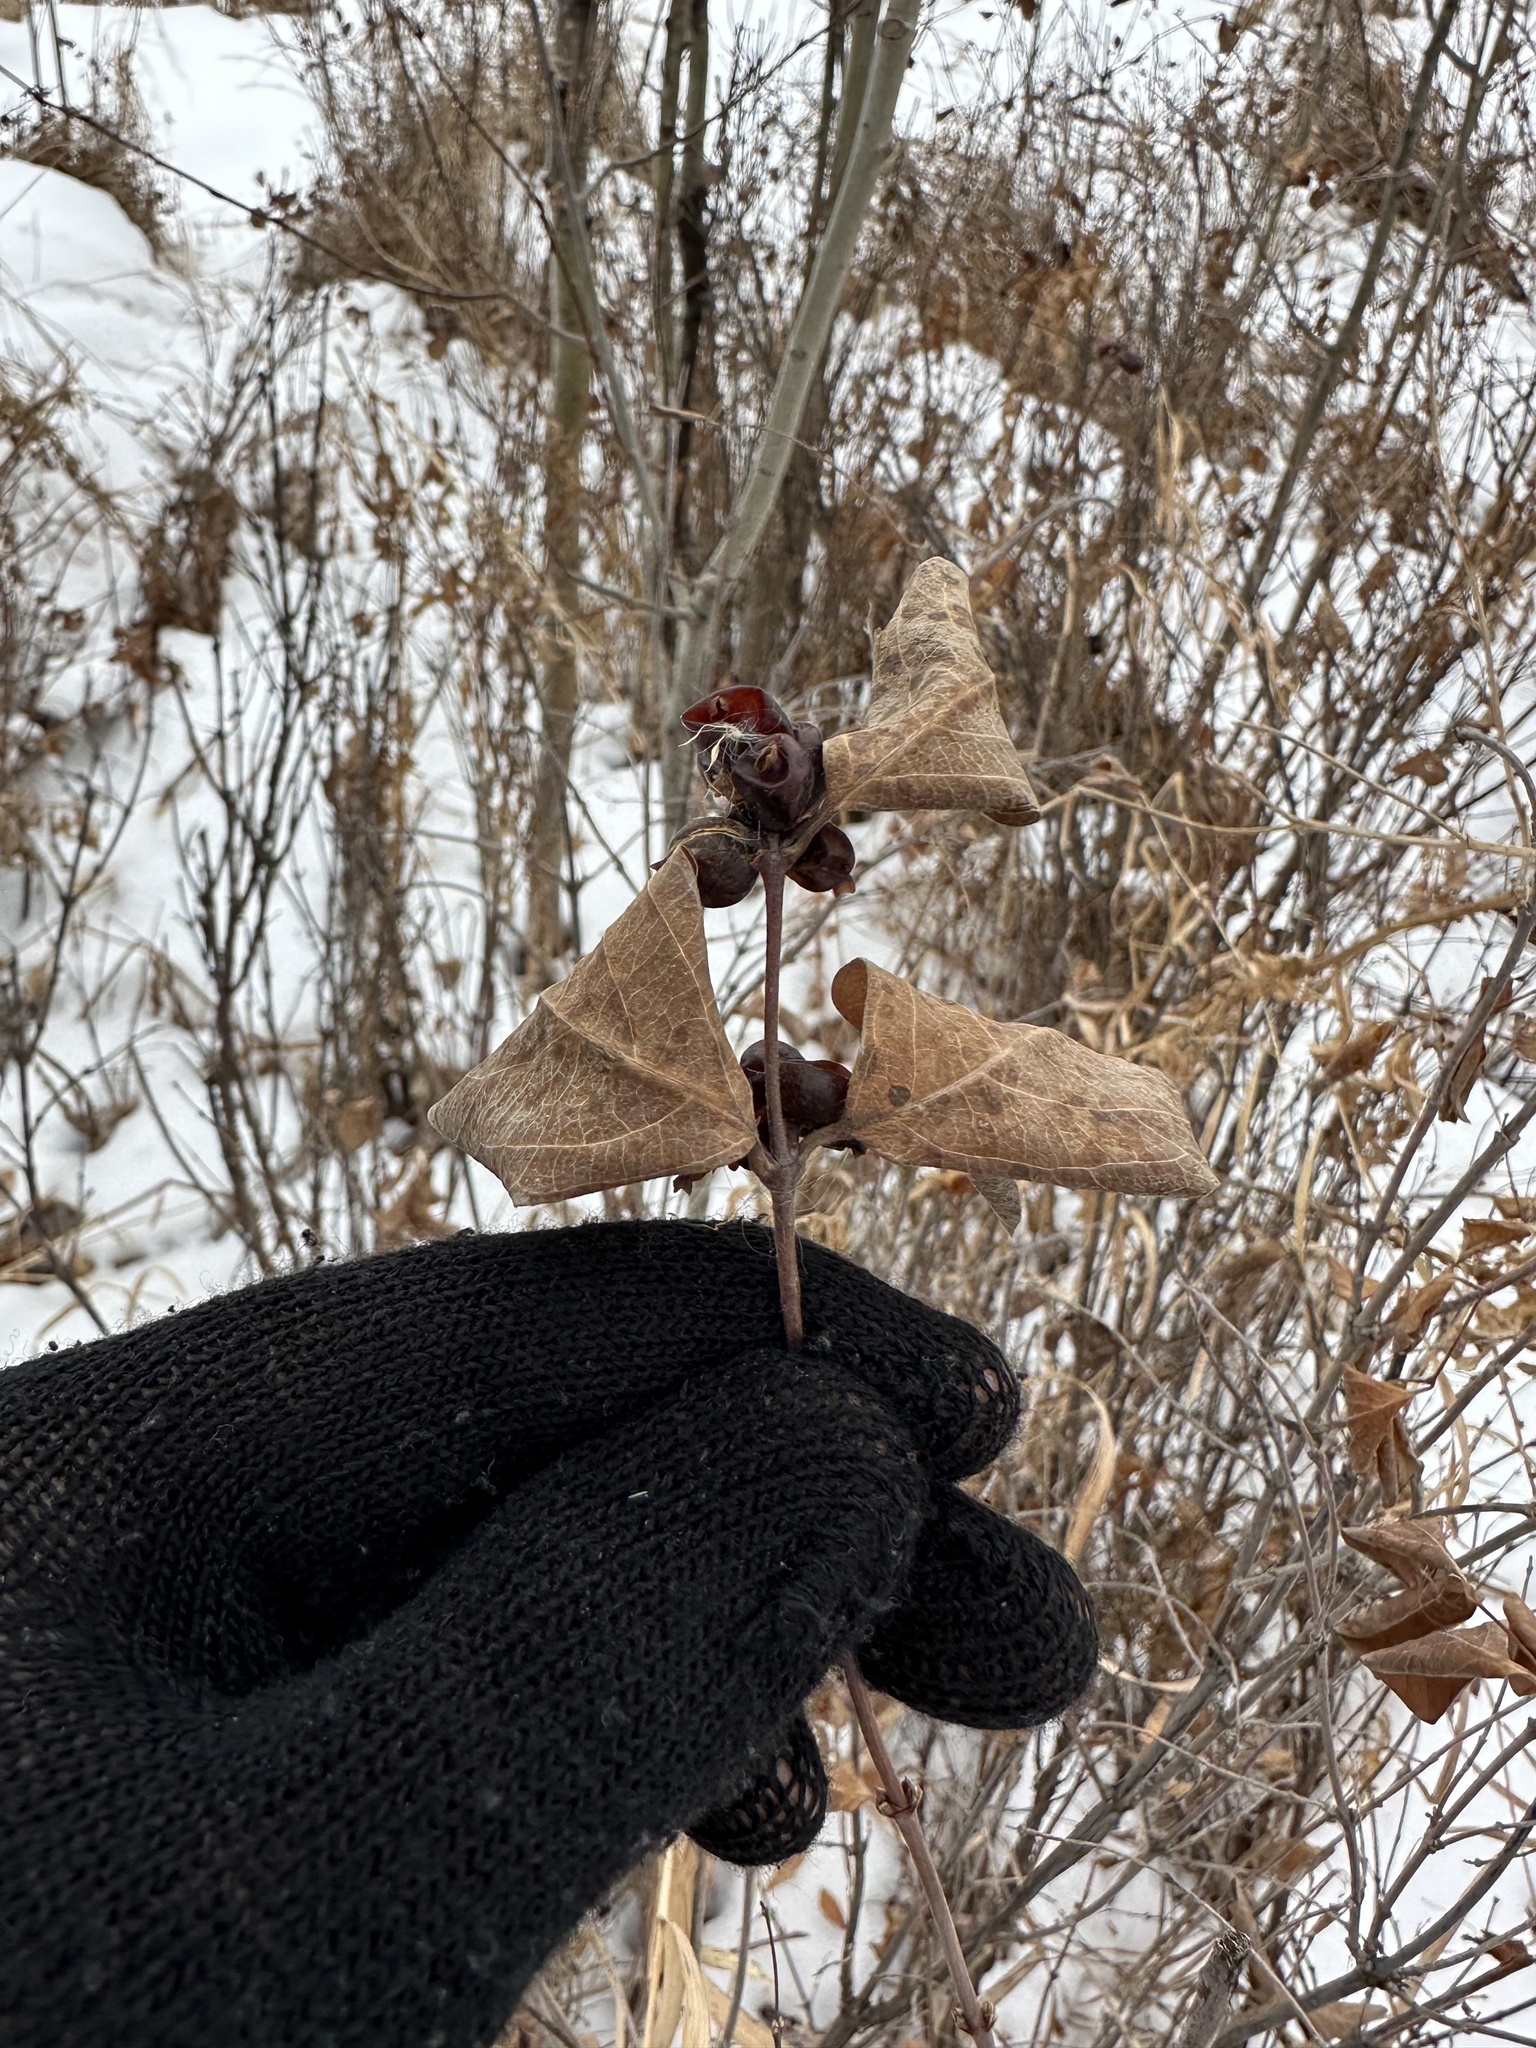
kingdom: Plantae
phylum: Tracheophyta
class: Magnoliopsida
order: Dipsacales
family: Caprifoliaceae
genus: Symphoricarpos
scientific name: Symphoricarpos occidentalis
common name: Wolfberry
